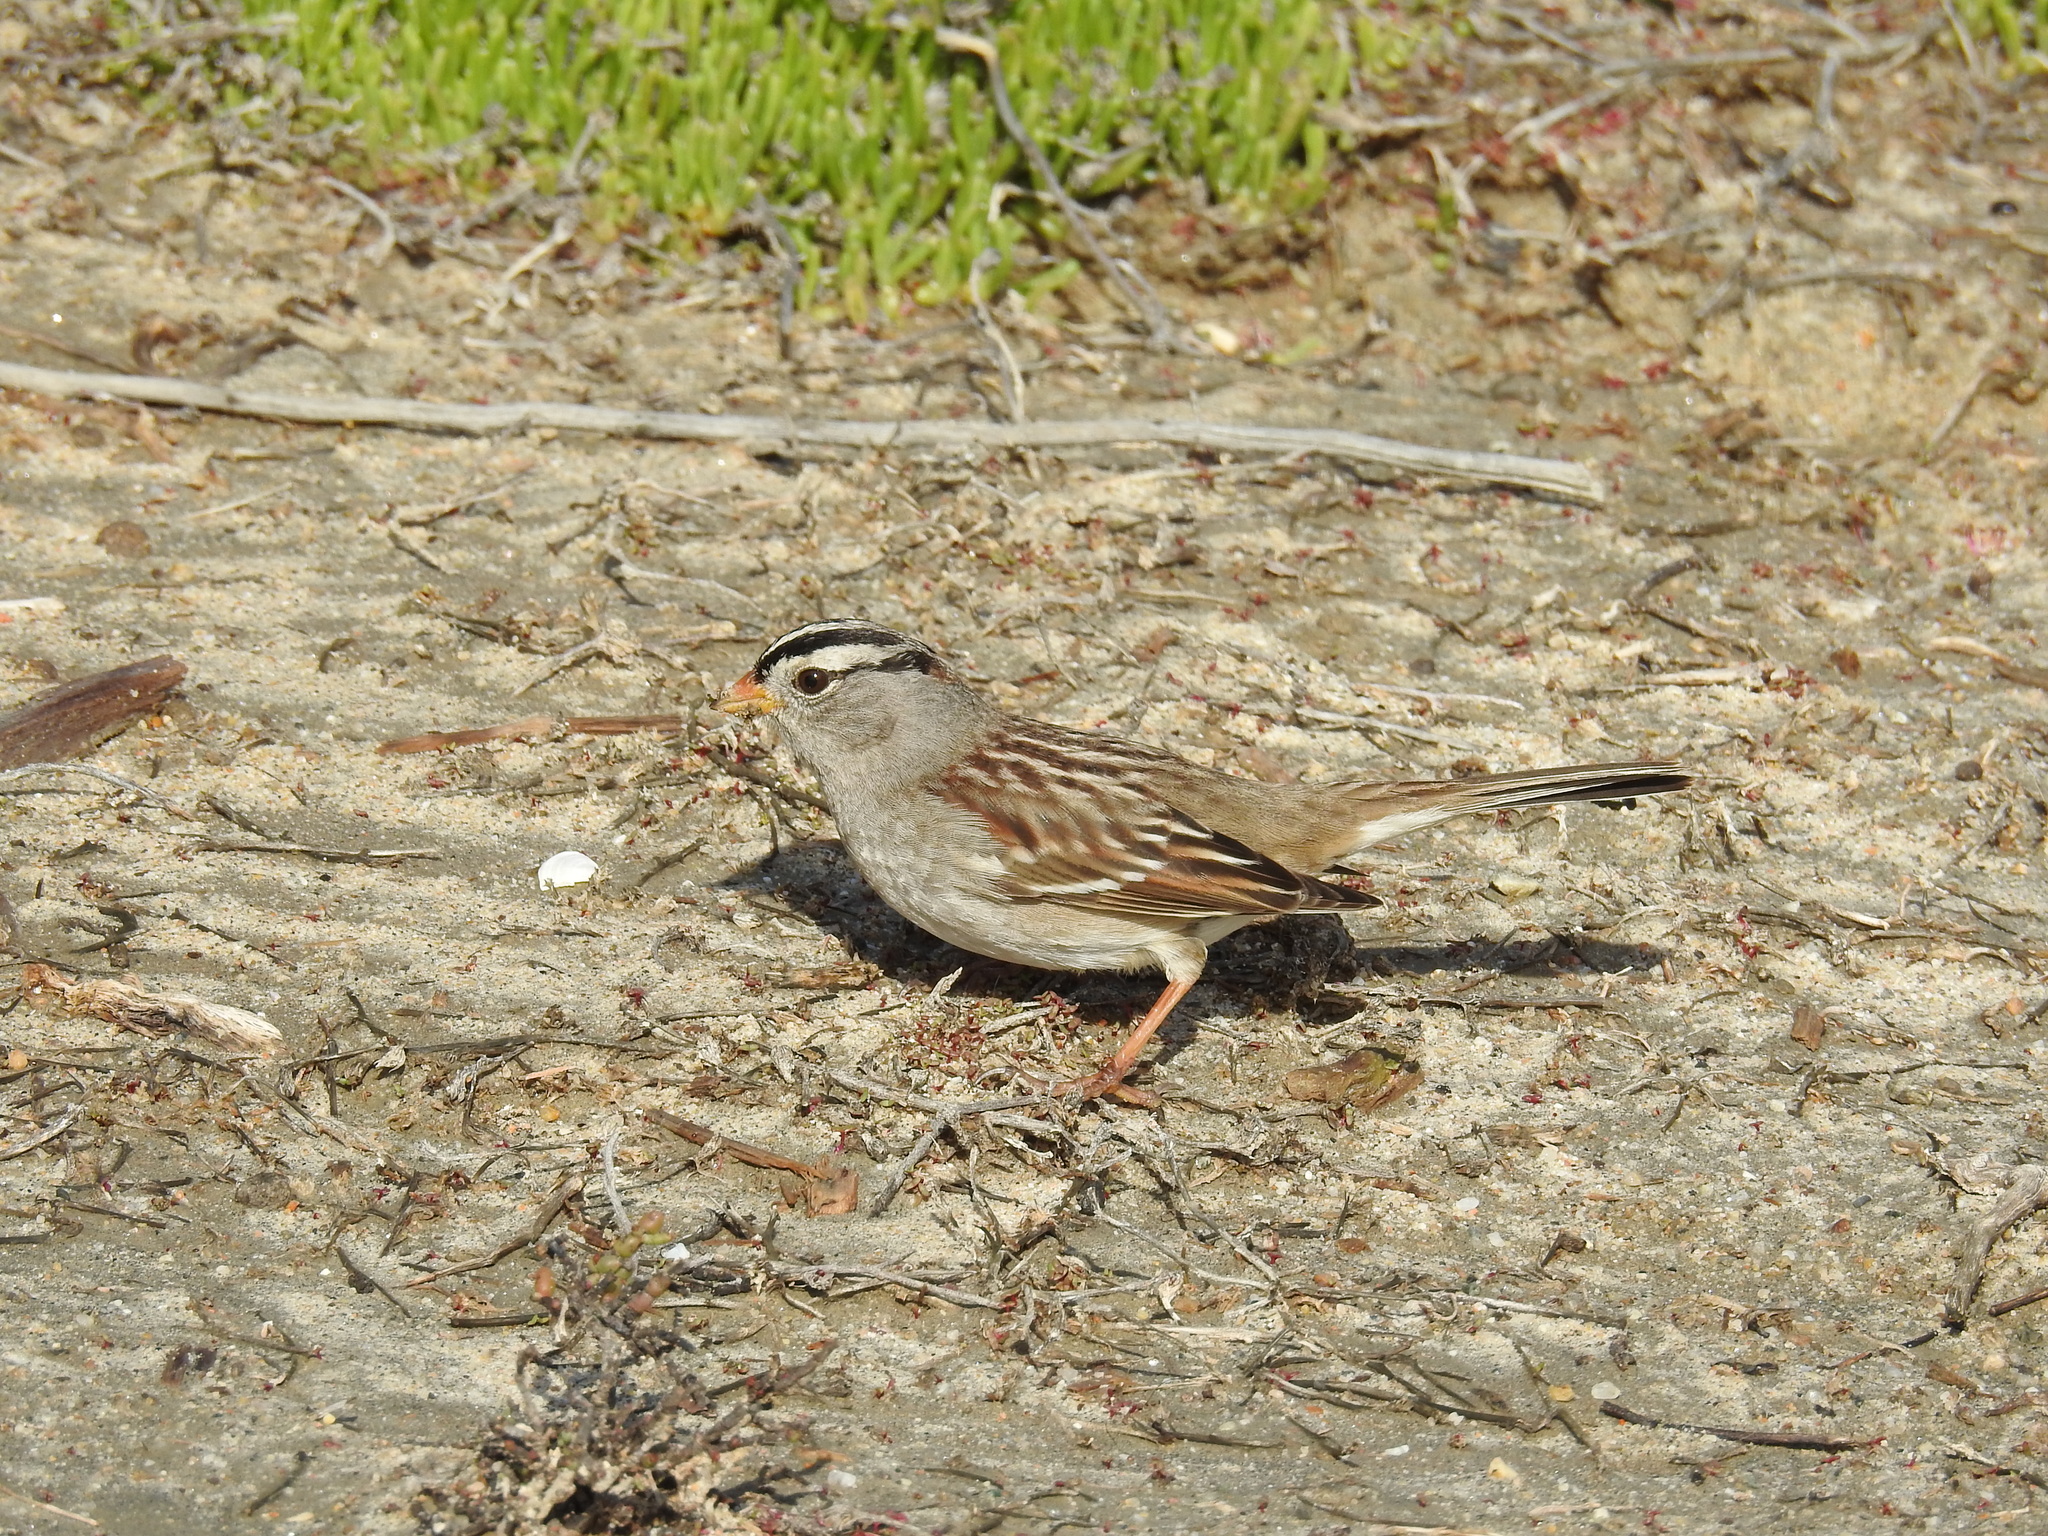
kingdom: Animalia
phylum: Chordata
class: Aves
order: Passeriformes
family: Passerellidae
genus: Zonotrichia
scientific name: Zonotrichia leucophrys
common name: White-crowned sparrow
